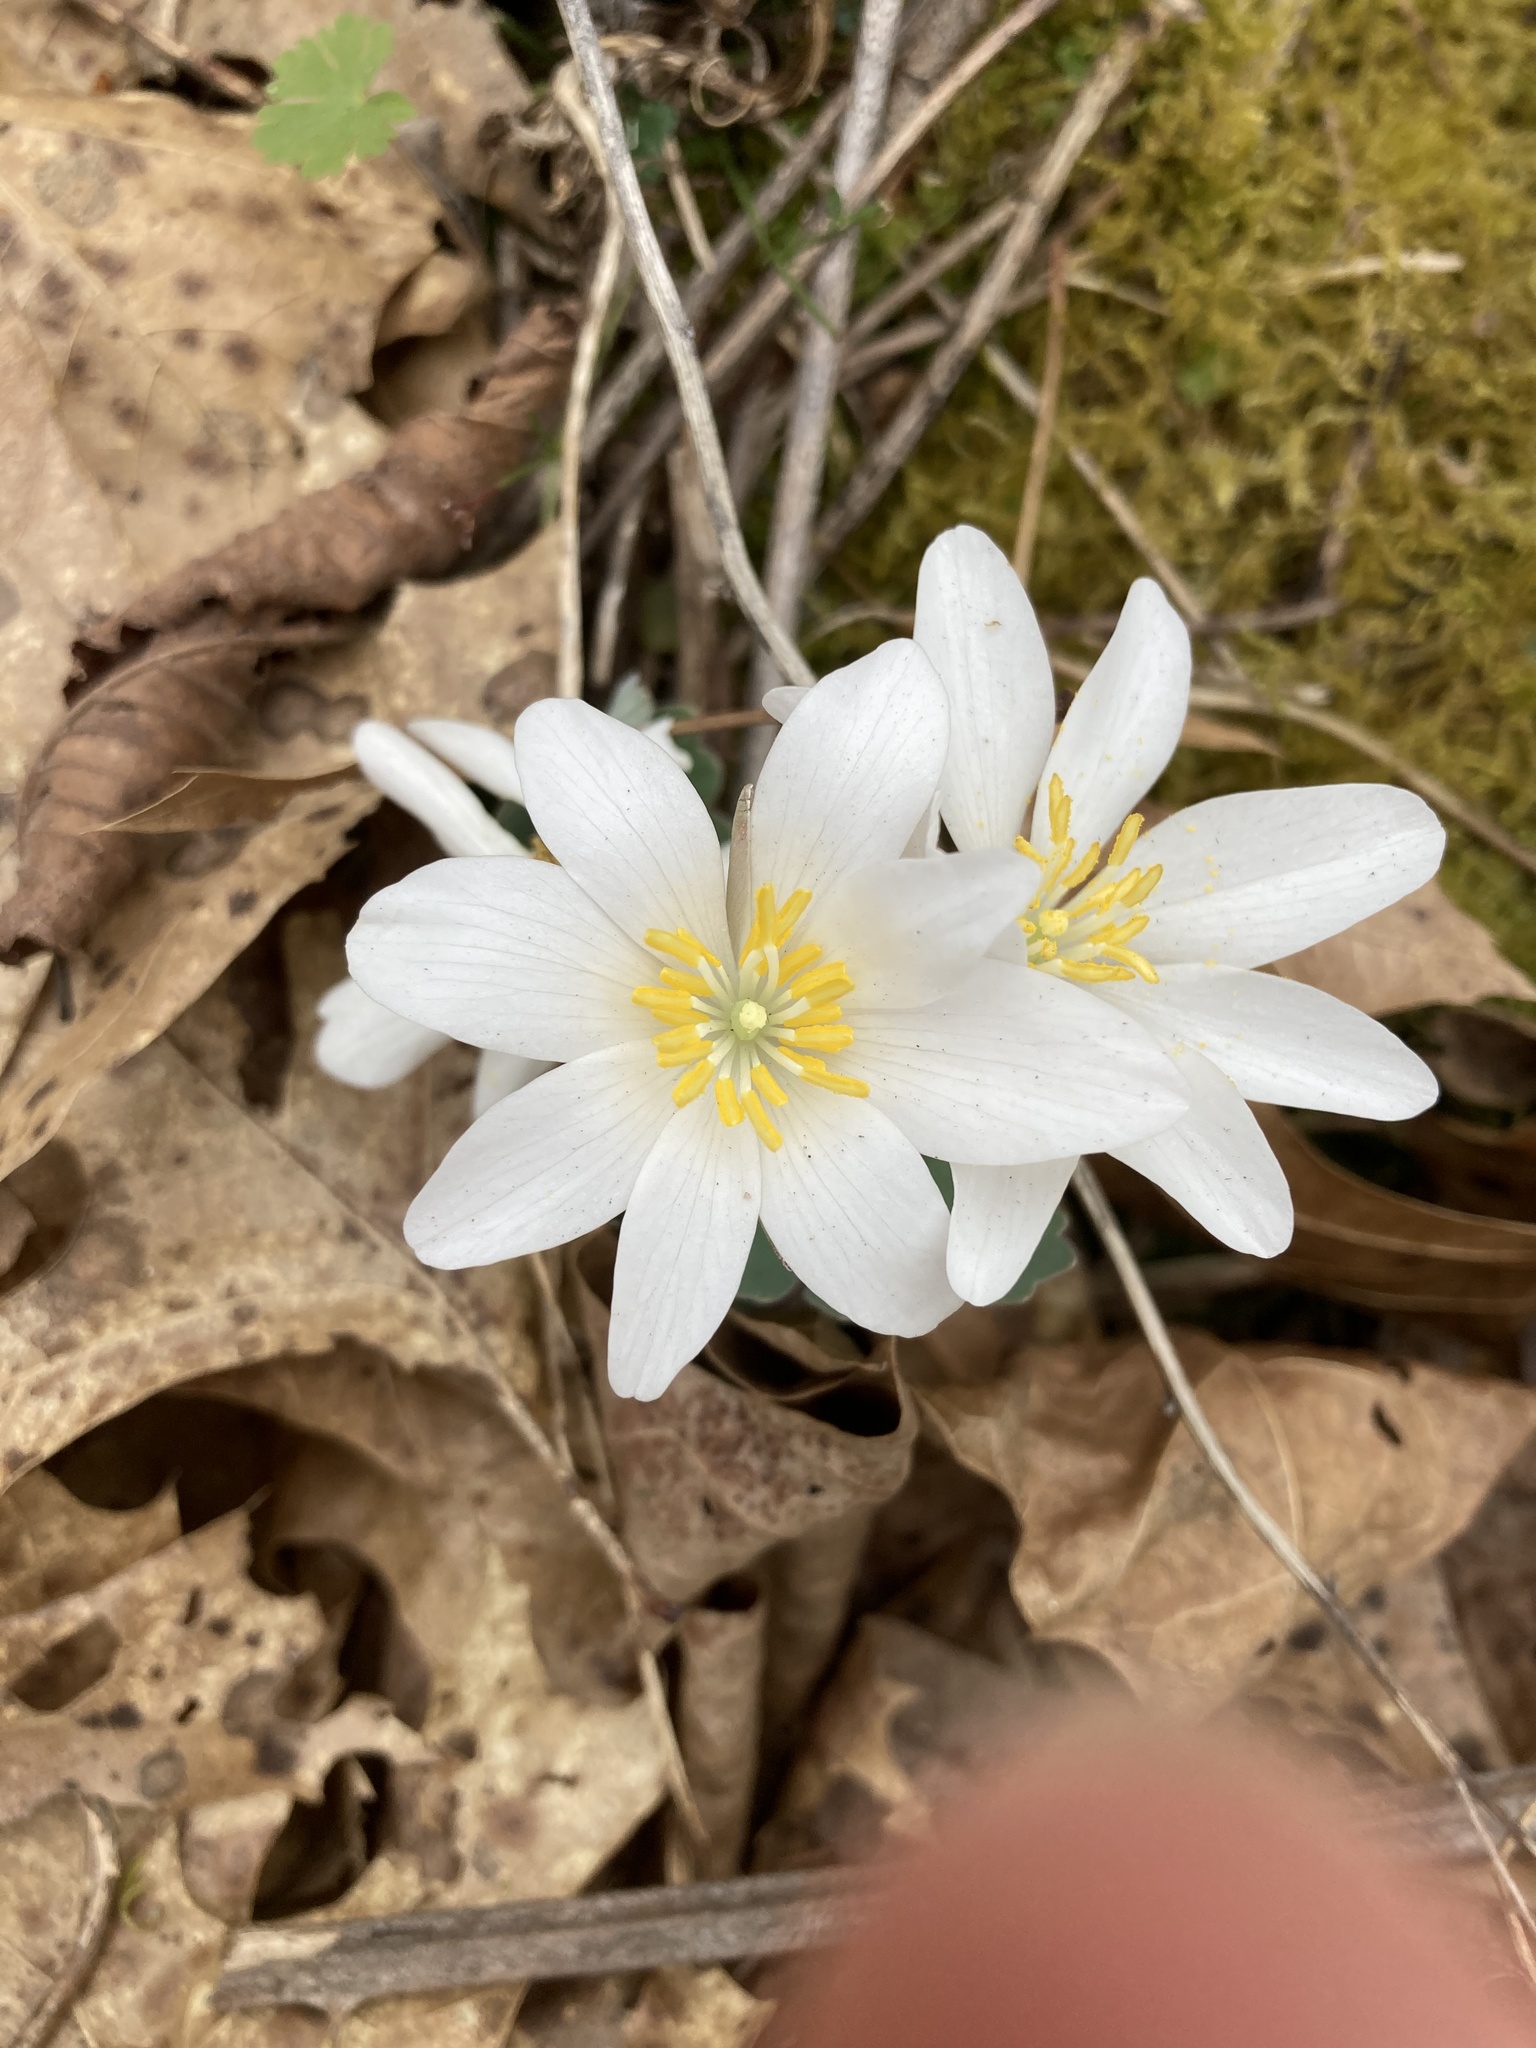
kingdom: Plantae
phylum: Tracheophyta
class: Magnoliopsida
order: Ranunculales
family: Papaveraceae
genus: Sanguinaria
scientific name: Sanguinaria canadensis
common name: Bloodroot
